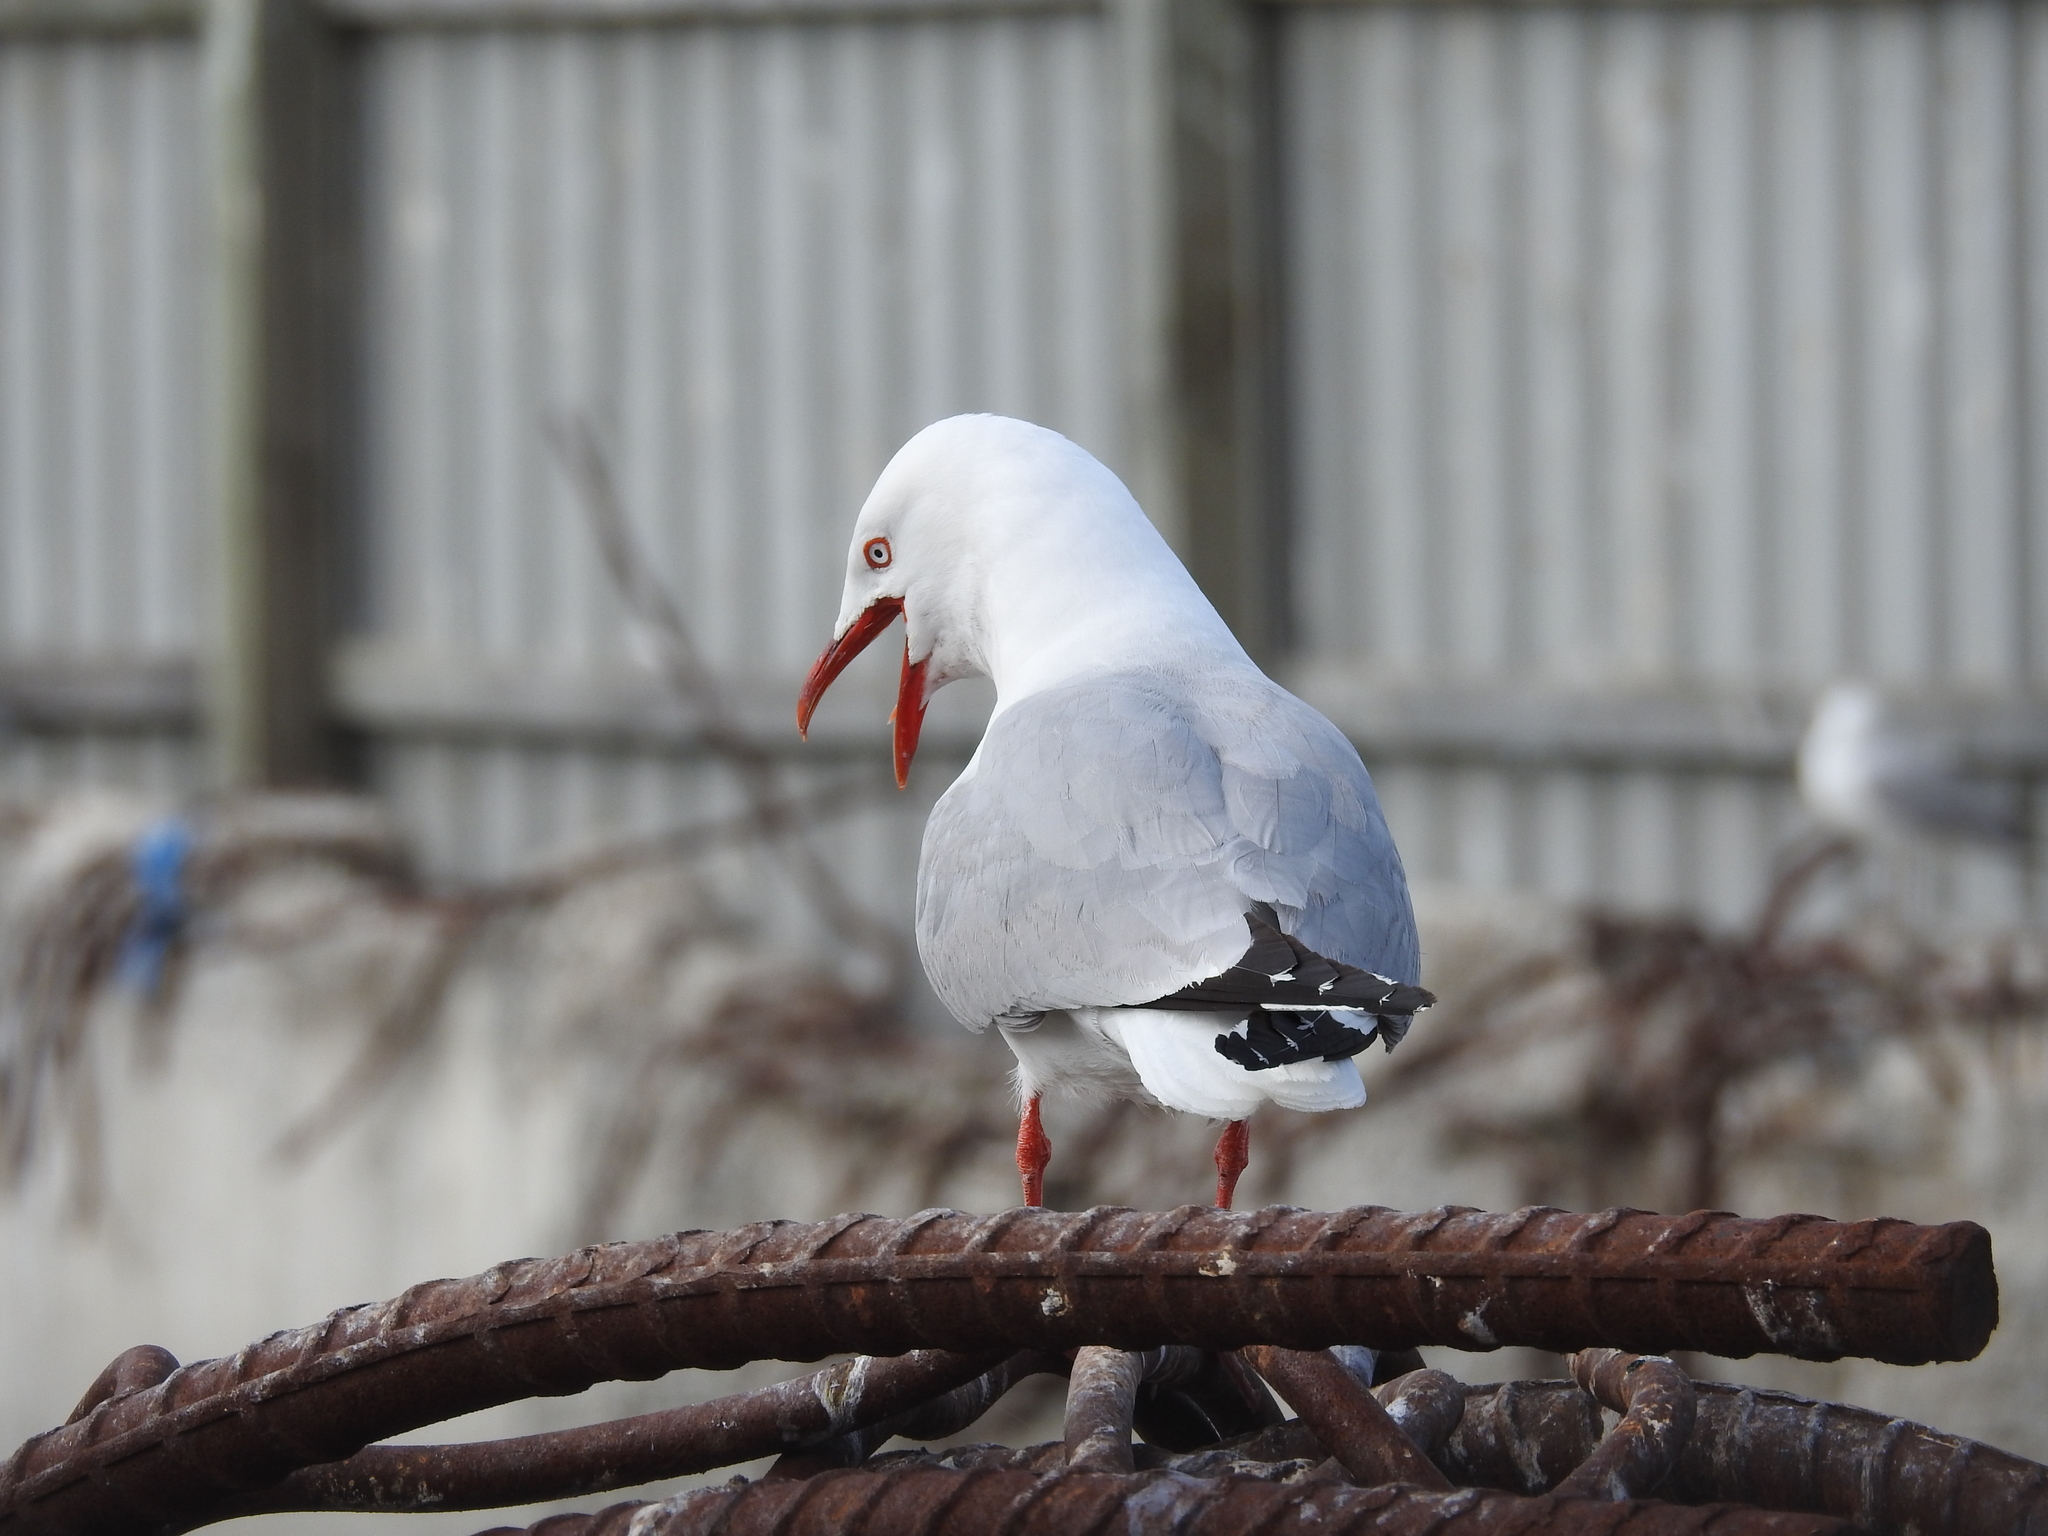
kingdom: Animalia
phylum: Chordata
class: Aves
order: Charadriiformes
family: Laridae
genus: Chroicocephalus
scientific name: Chroicocephalus novaehollandiae
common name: Silver gull
